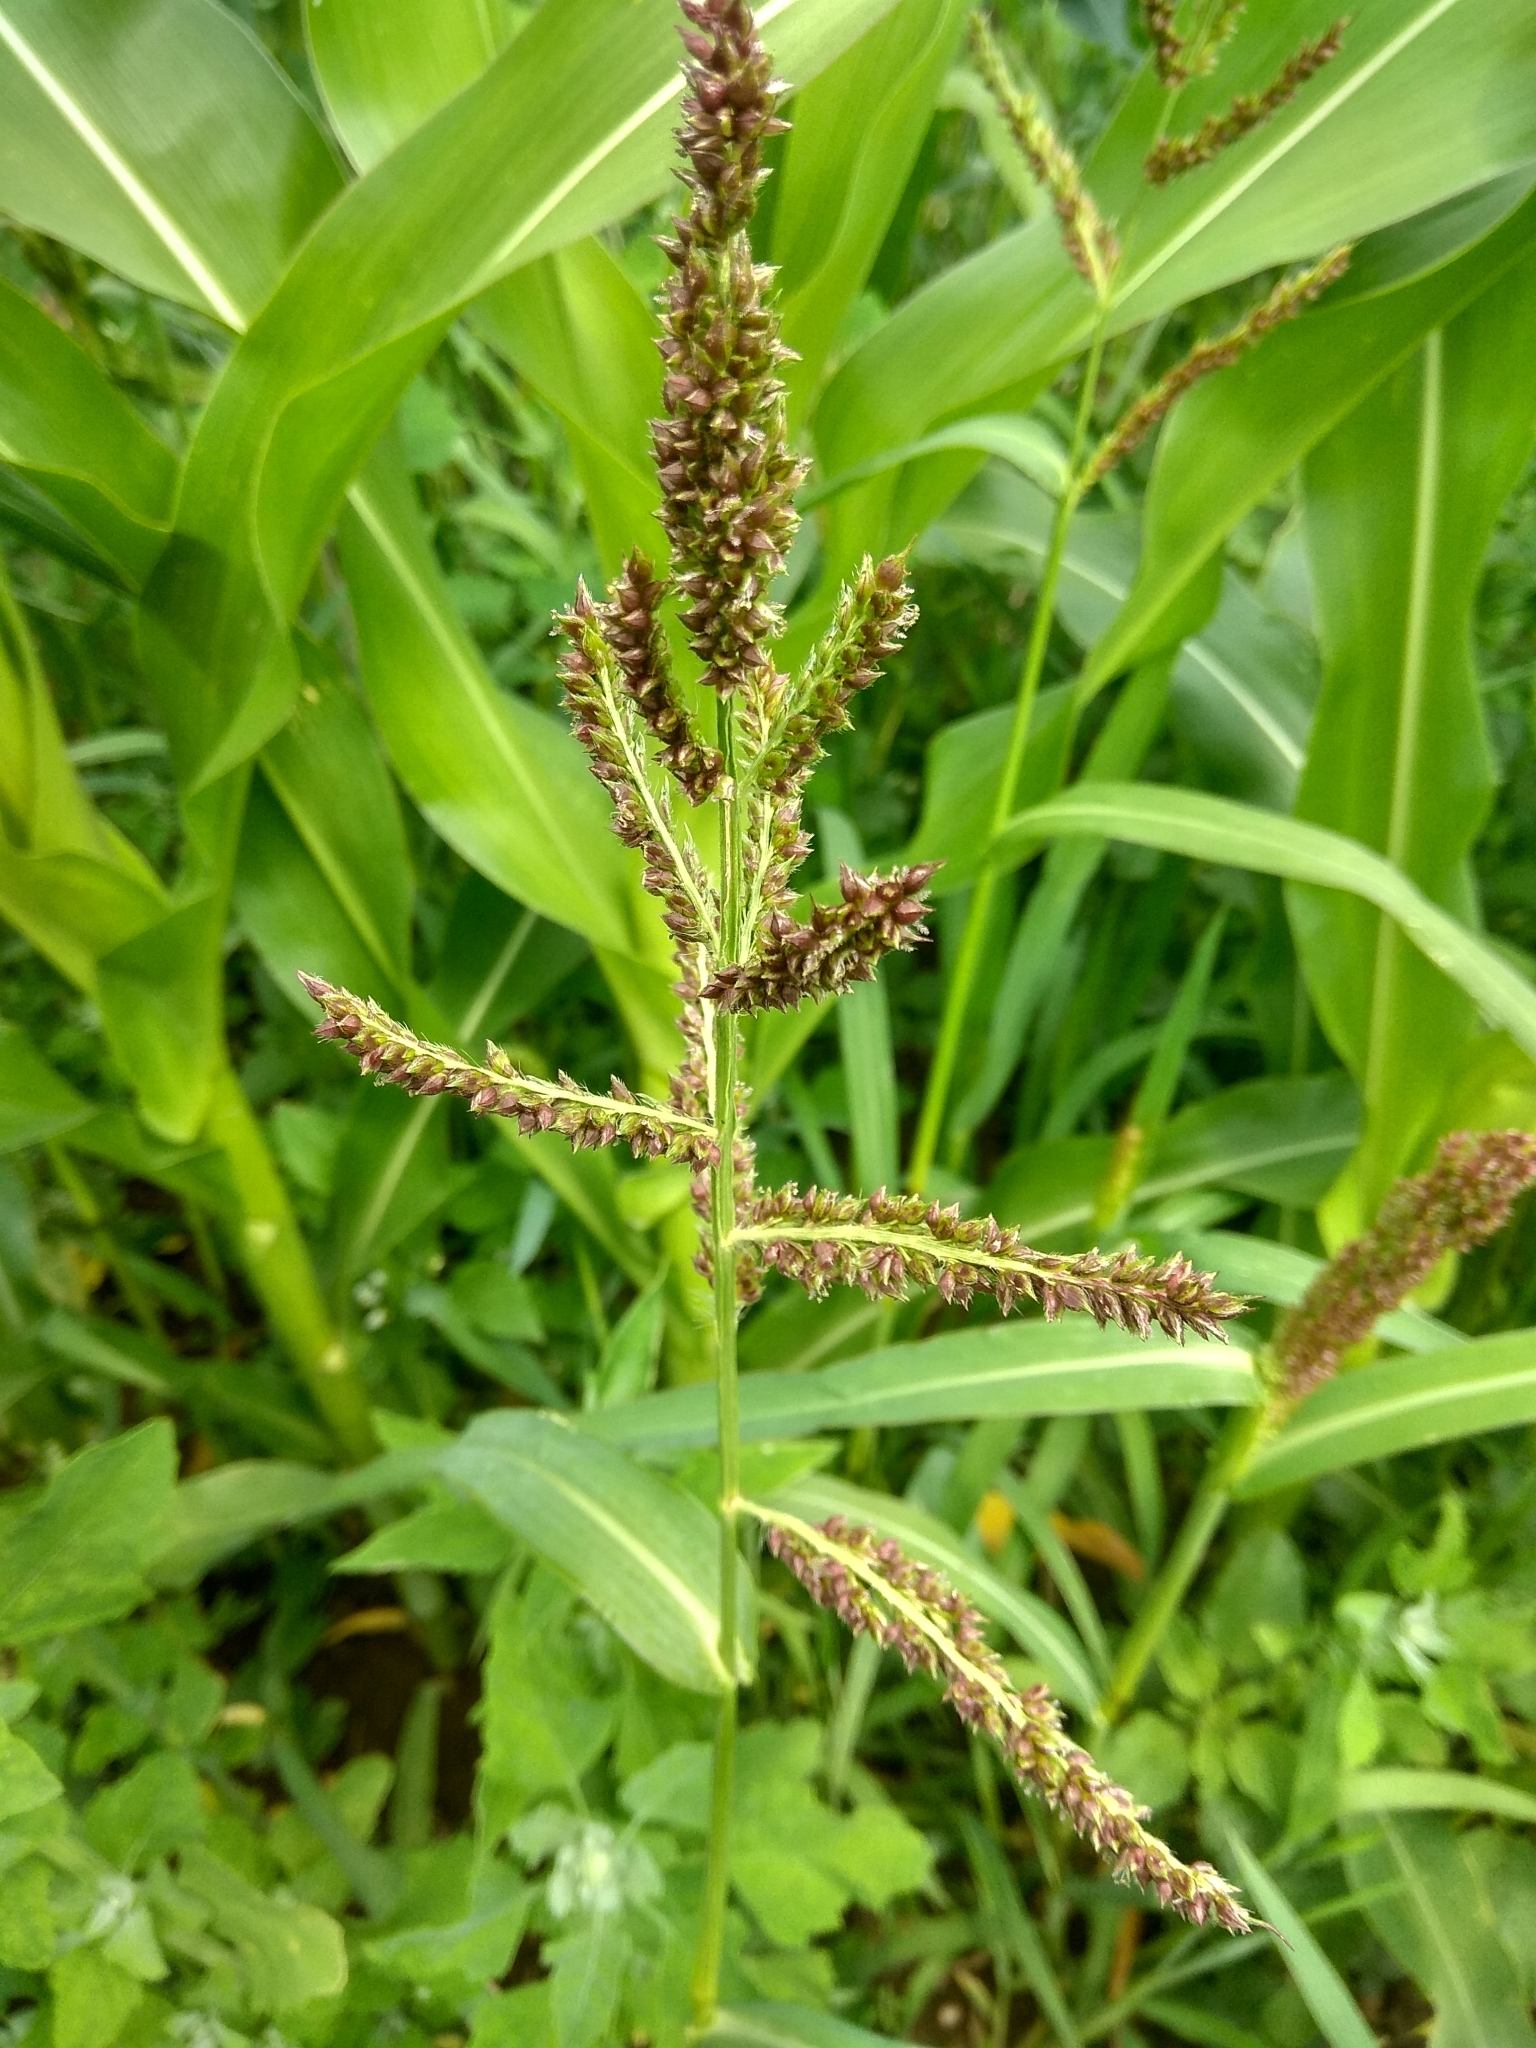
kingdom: Plantae
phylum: Tracheophyta
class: Liliopsida
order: Poales
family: Poaceae
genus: Echinochloa
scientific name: Echinochloa crus-galli
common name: Cockspur
